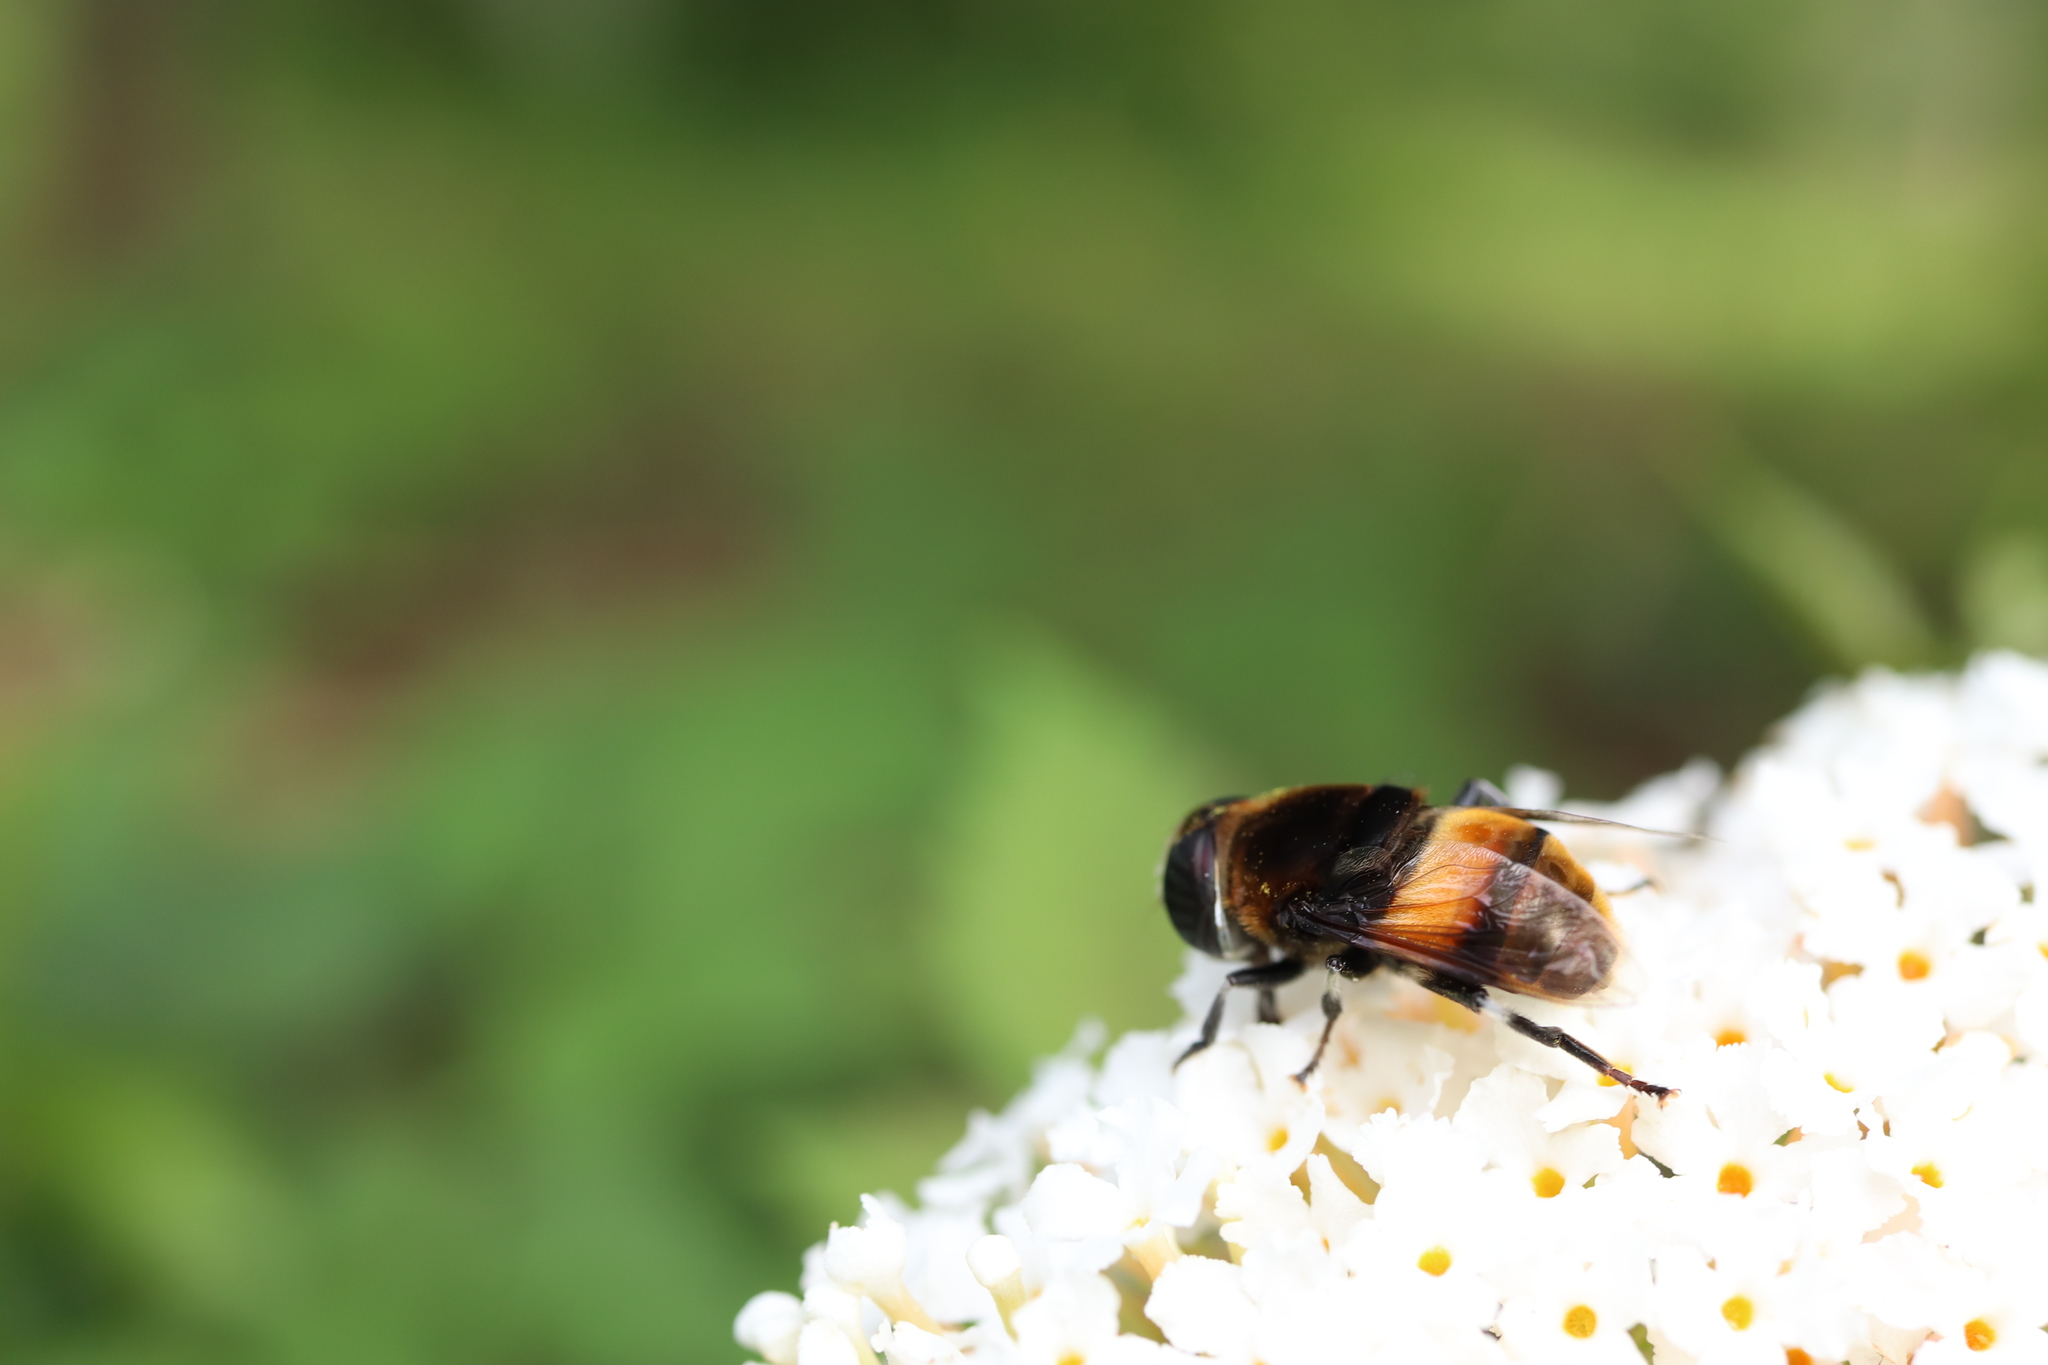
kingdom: Animalia
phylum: Arthropoda
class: Insecta
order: Diptera
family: Syrphidae
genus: Phytomia
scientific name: Phytomia zonata
